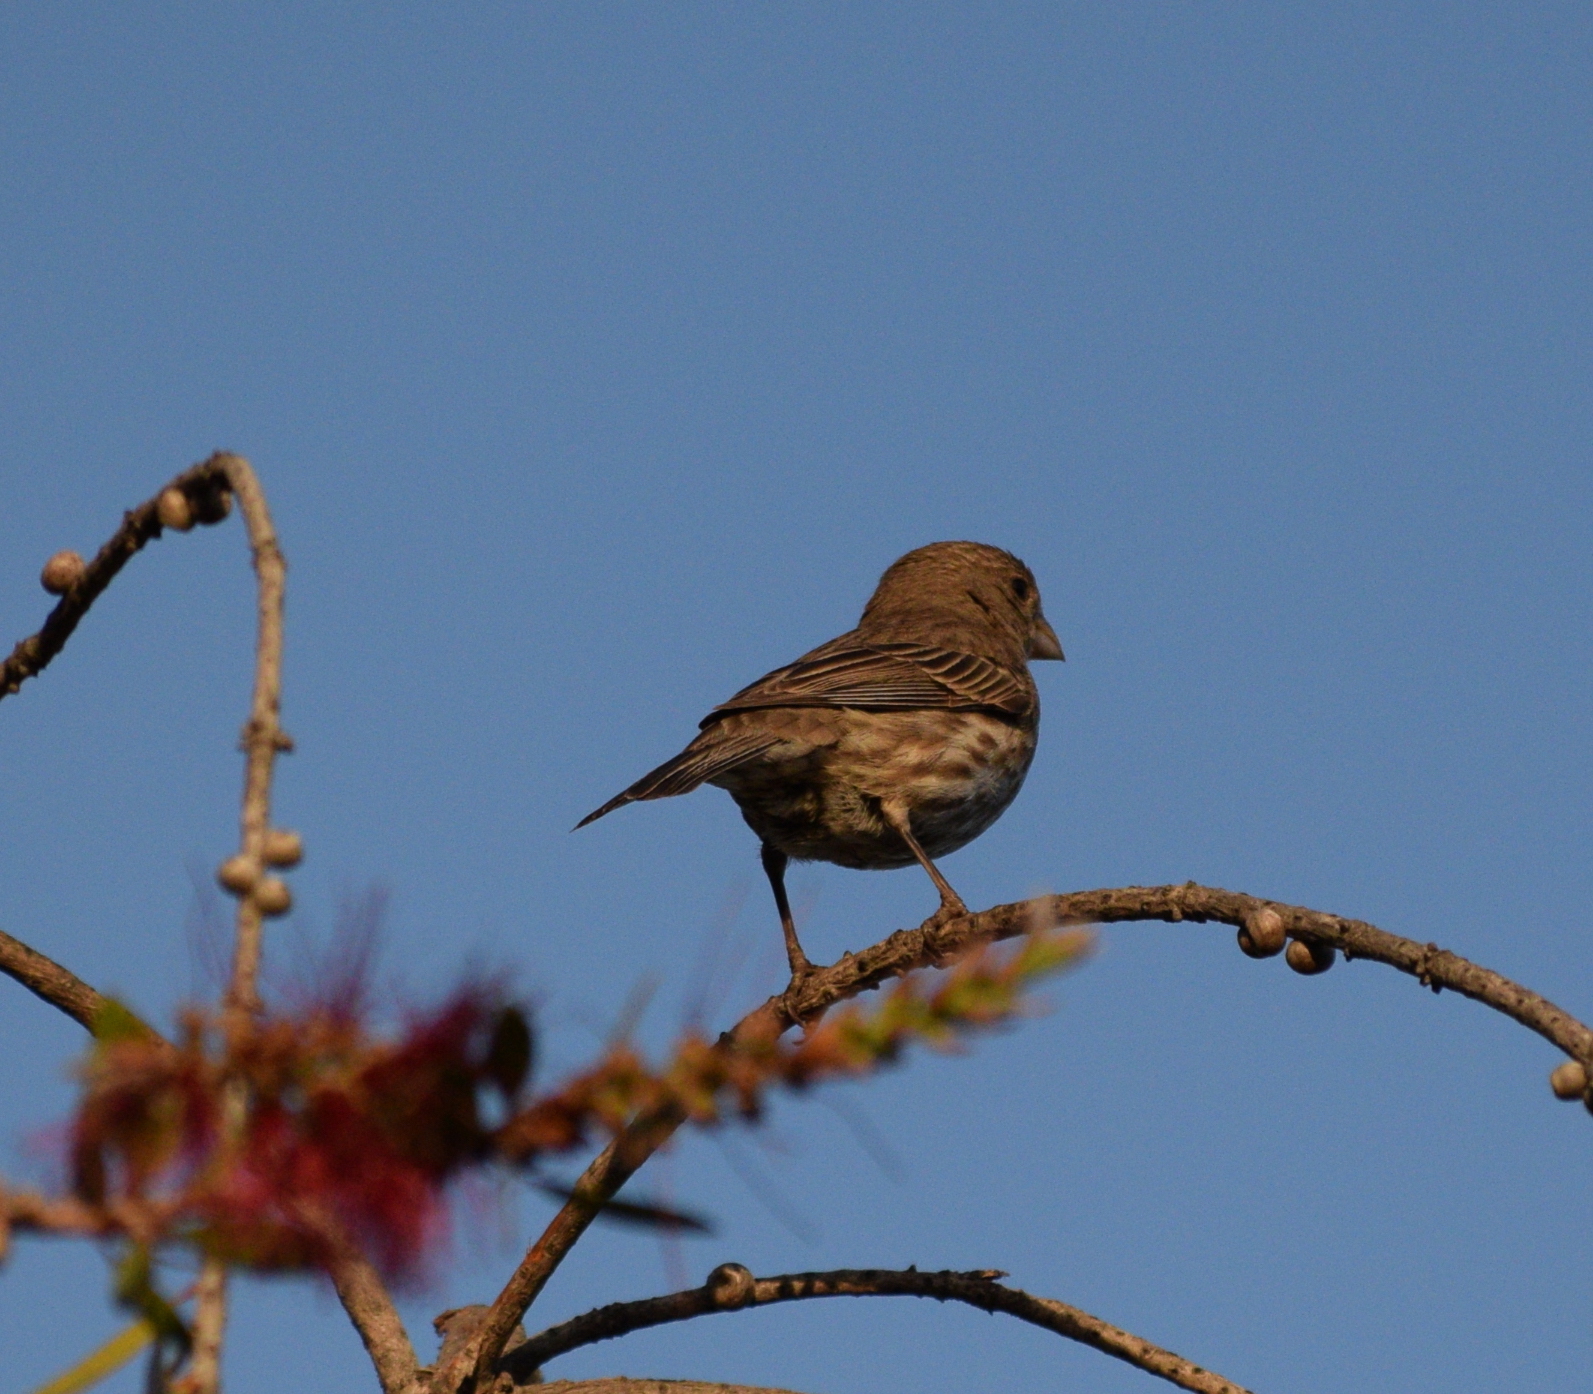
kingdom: Animalia
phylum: Chordata
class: Aves
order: Passeriformes
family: Fringillidae
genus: Haemorhous
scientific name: Haemorhous mexicanus
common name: House finch
